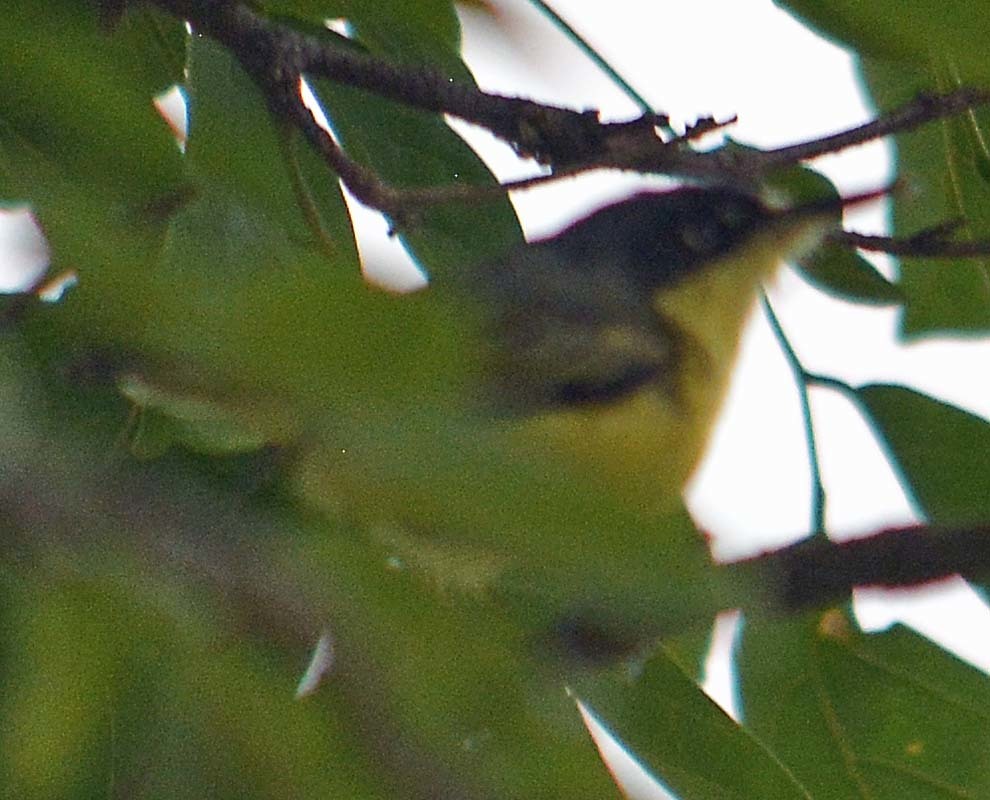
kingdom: Animalia
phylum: Chordata
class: Aves
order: Passeriformes
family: Tyrannidae
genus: Todirostrum
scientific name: Todirostrum cinereum
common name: Common tody-flycatcher
